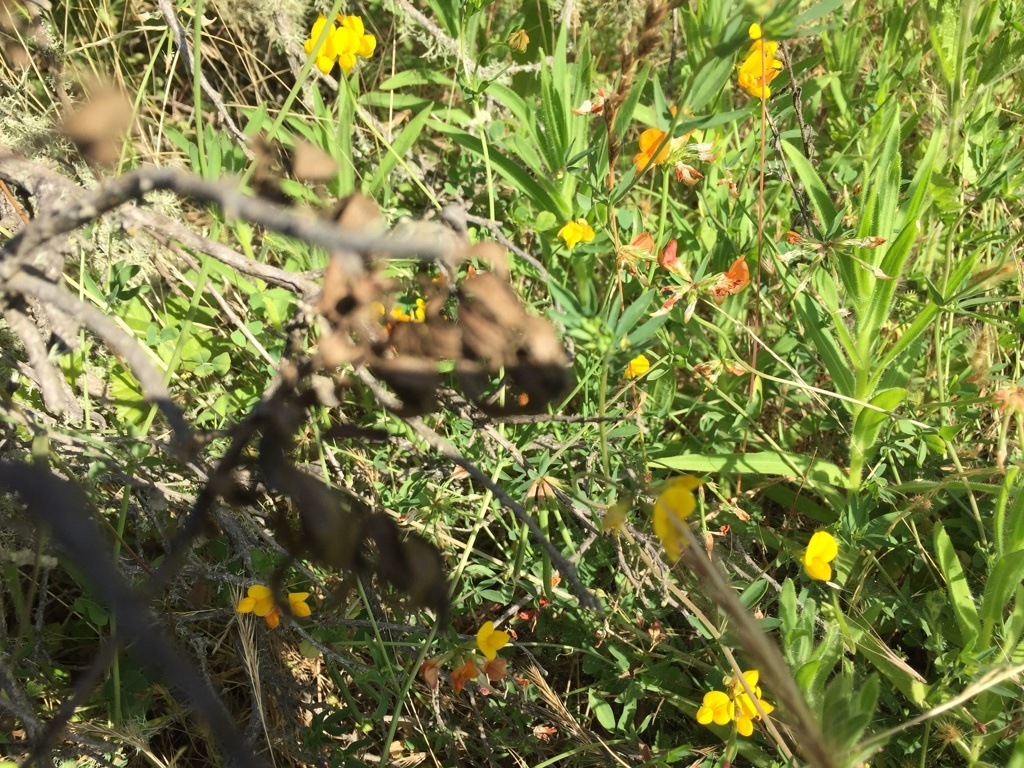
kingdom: Plantae
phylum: Tracheophyta
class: Magnoliopsida
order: Fabales
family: Fabaceae
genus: Lotus
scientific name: Lotus corniculatus
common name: Common bird's-foot-trefoil
